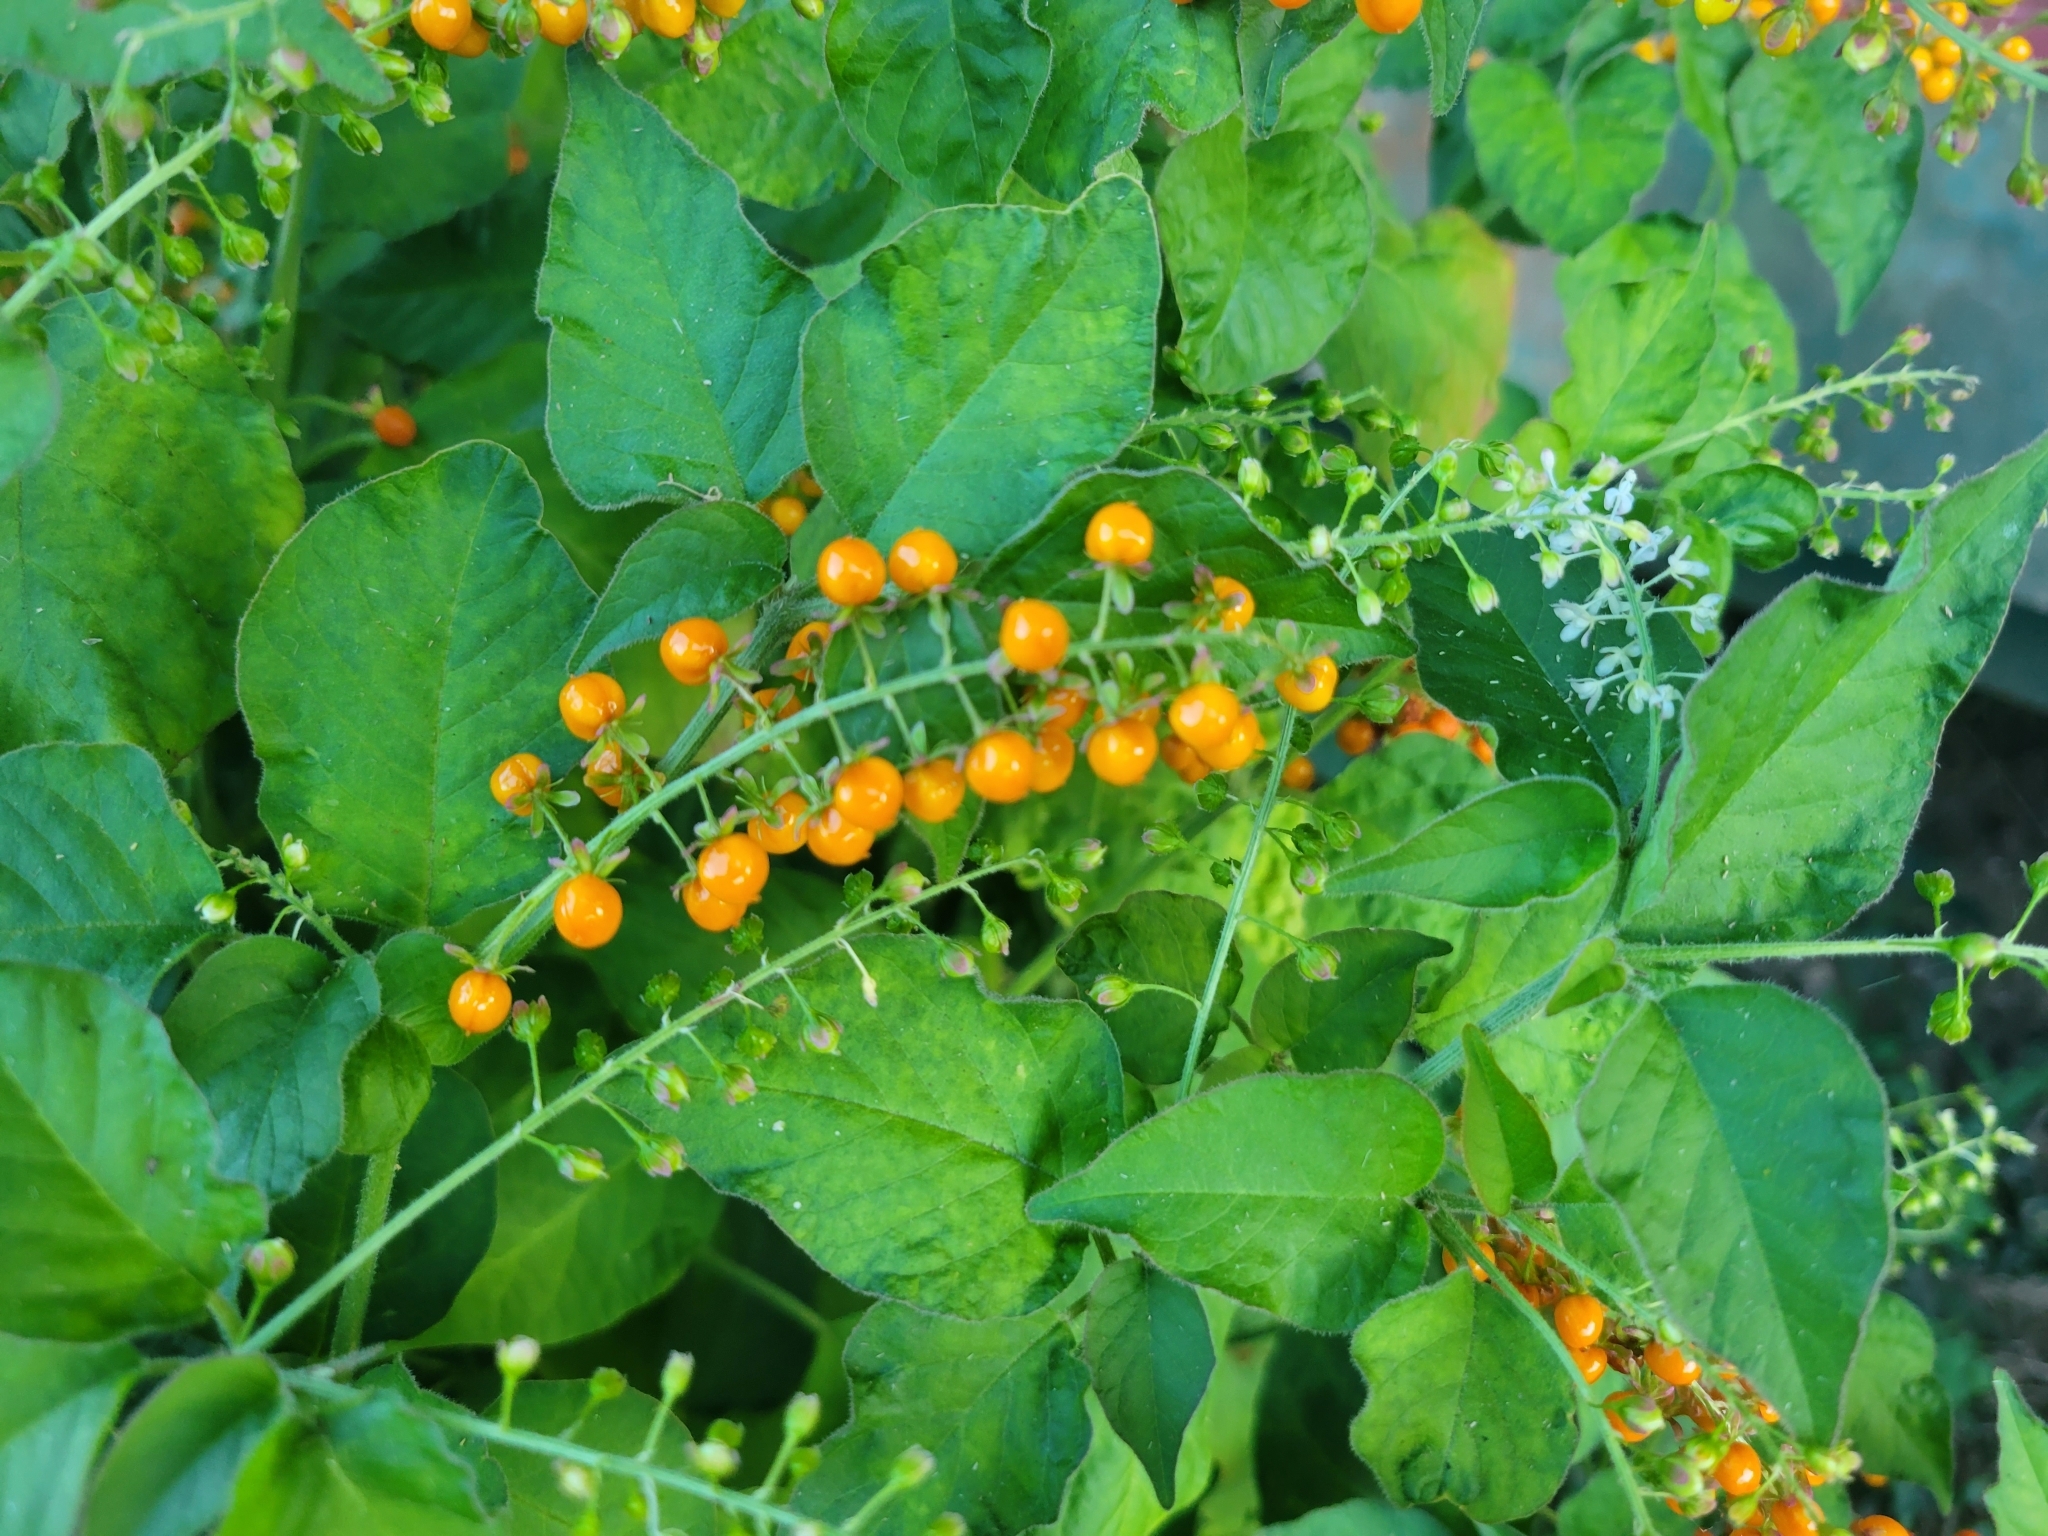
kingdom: Plantae
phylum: Tracheophyta
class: Magnoliopsida
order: Caryophyllales
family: Phytolaccaceae
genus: Rivina
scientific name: Rivina humilis
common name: Rougeplant
